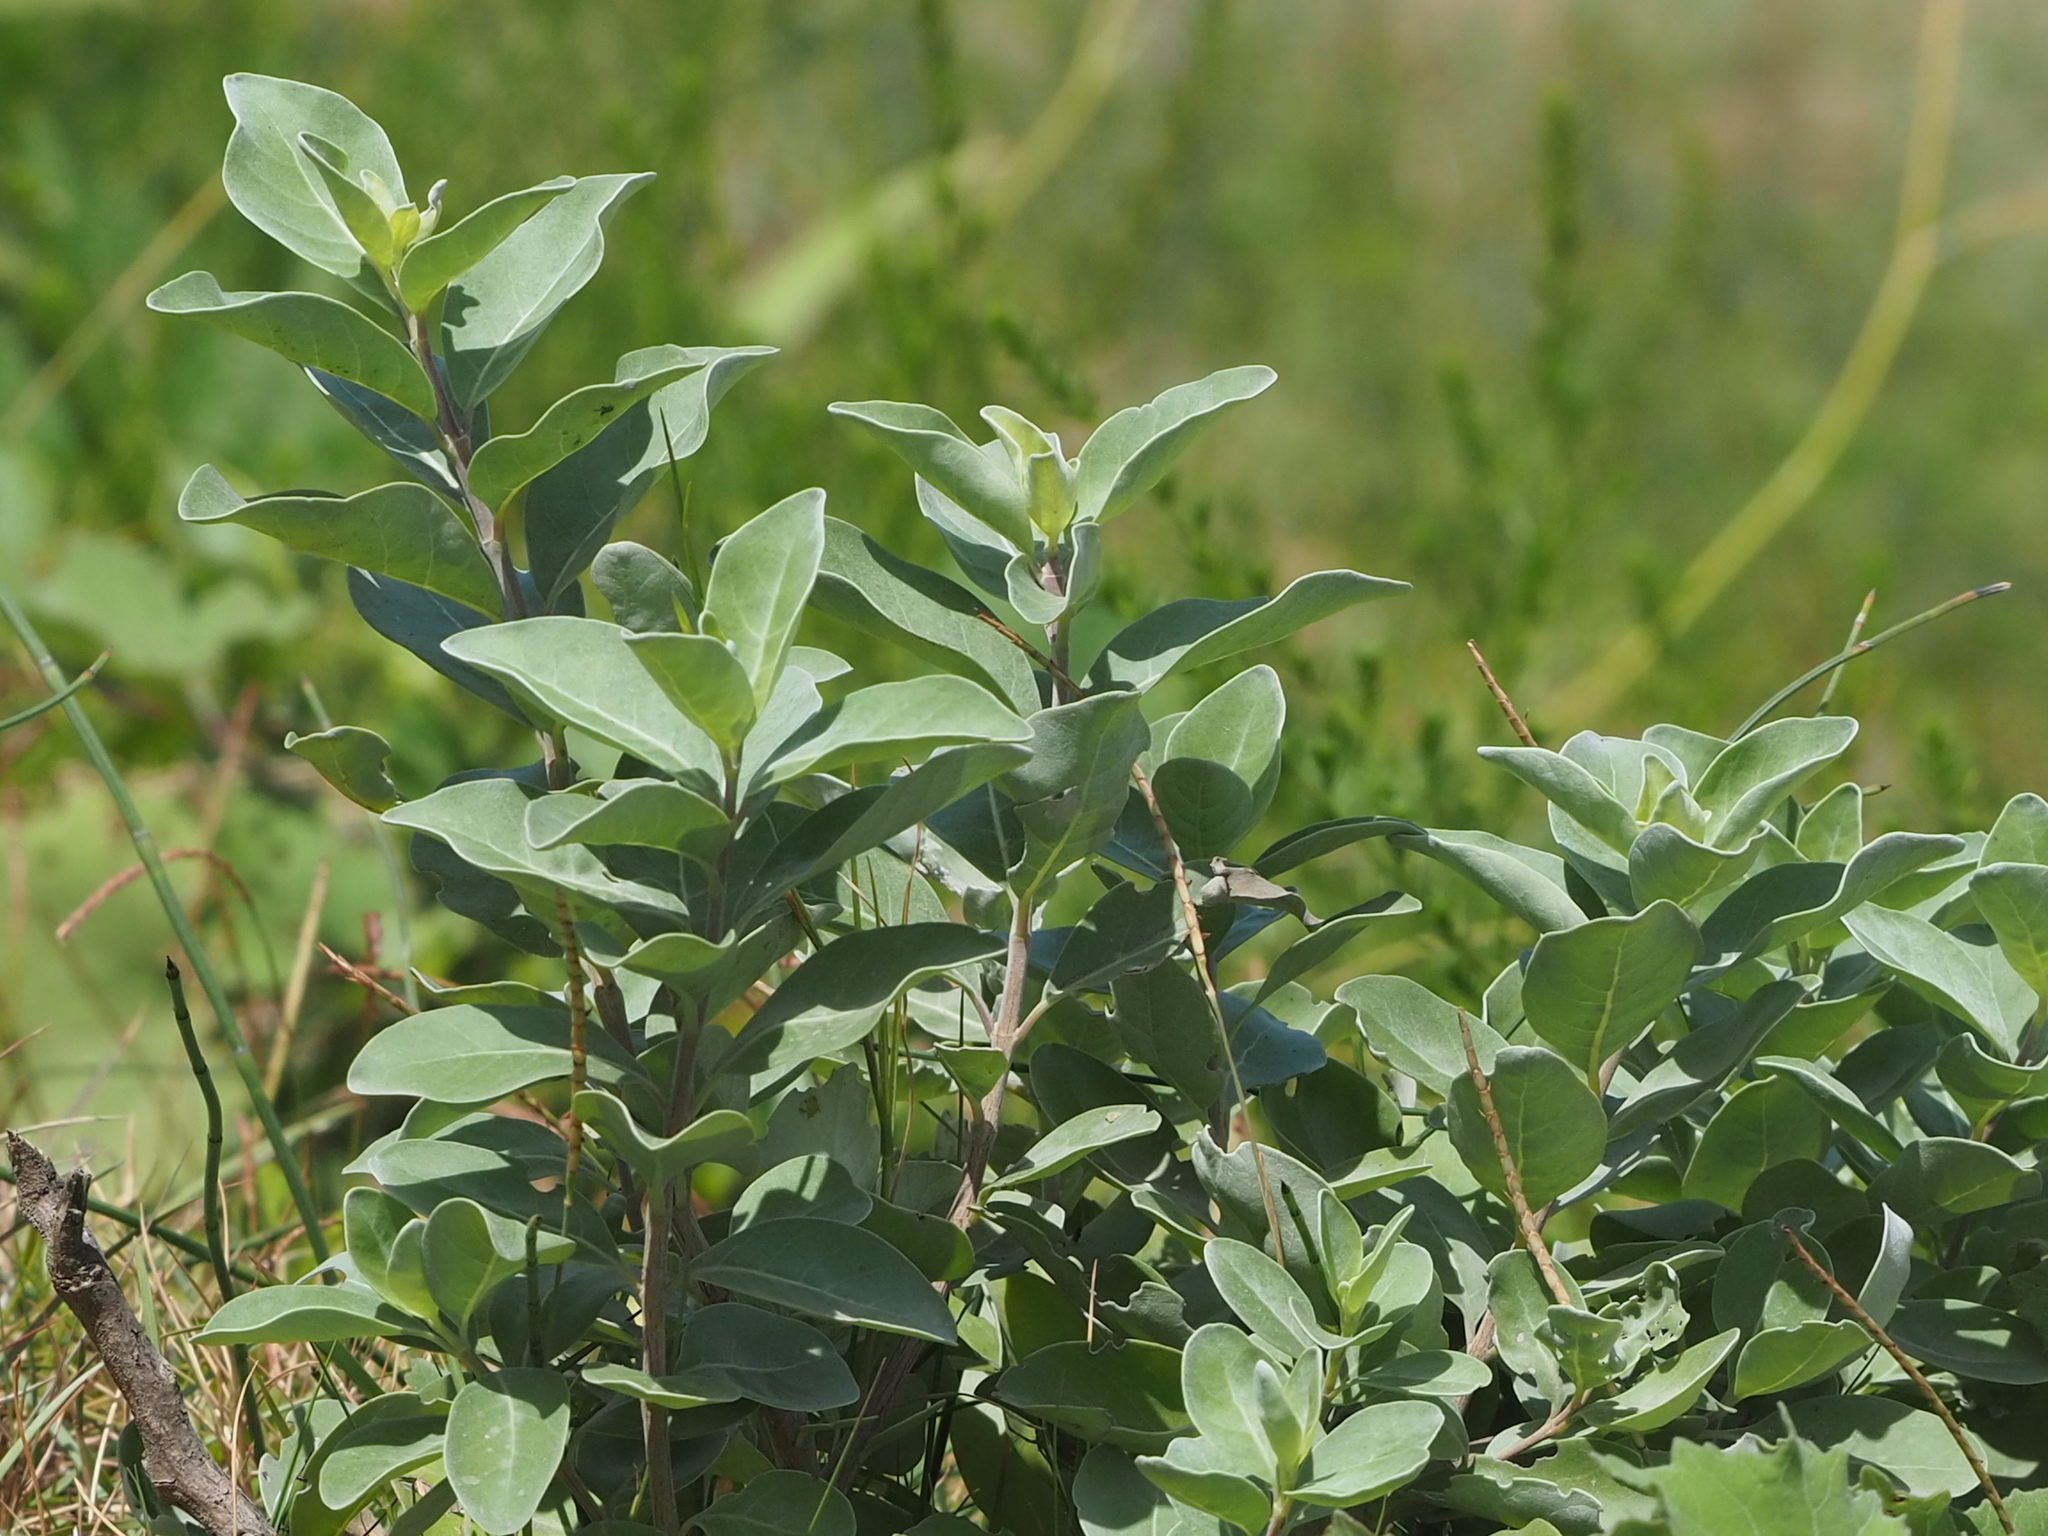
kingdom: Plantae
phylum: Tracheophyta
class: Magnoliopsida
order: Lamiales
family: Lamiaceae
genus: Vitex
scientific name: Vitex rotundifolia
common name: Beach vitex
